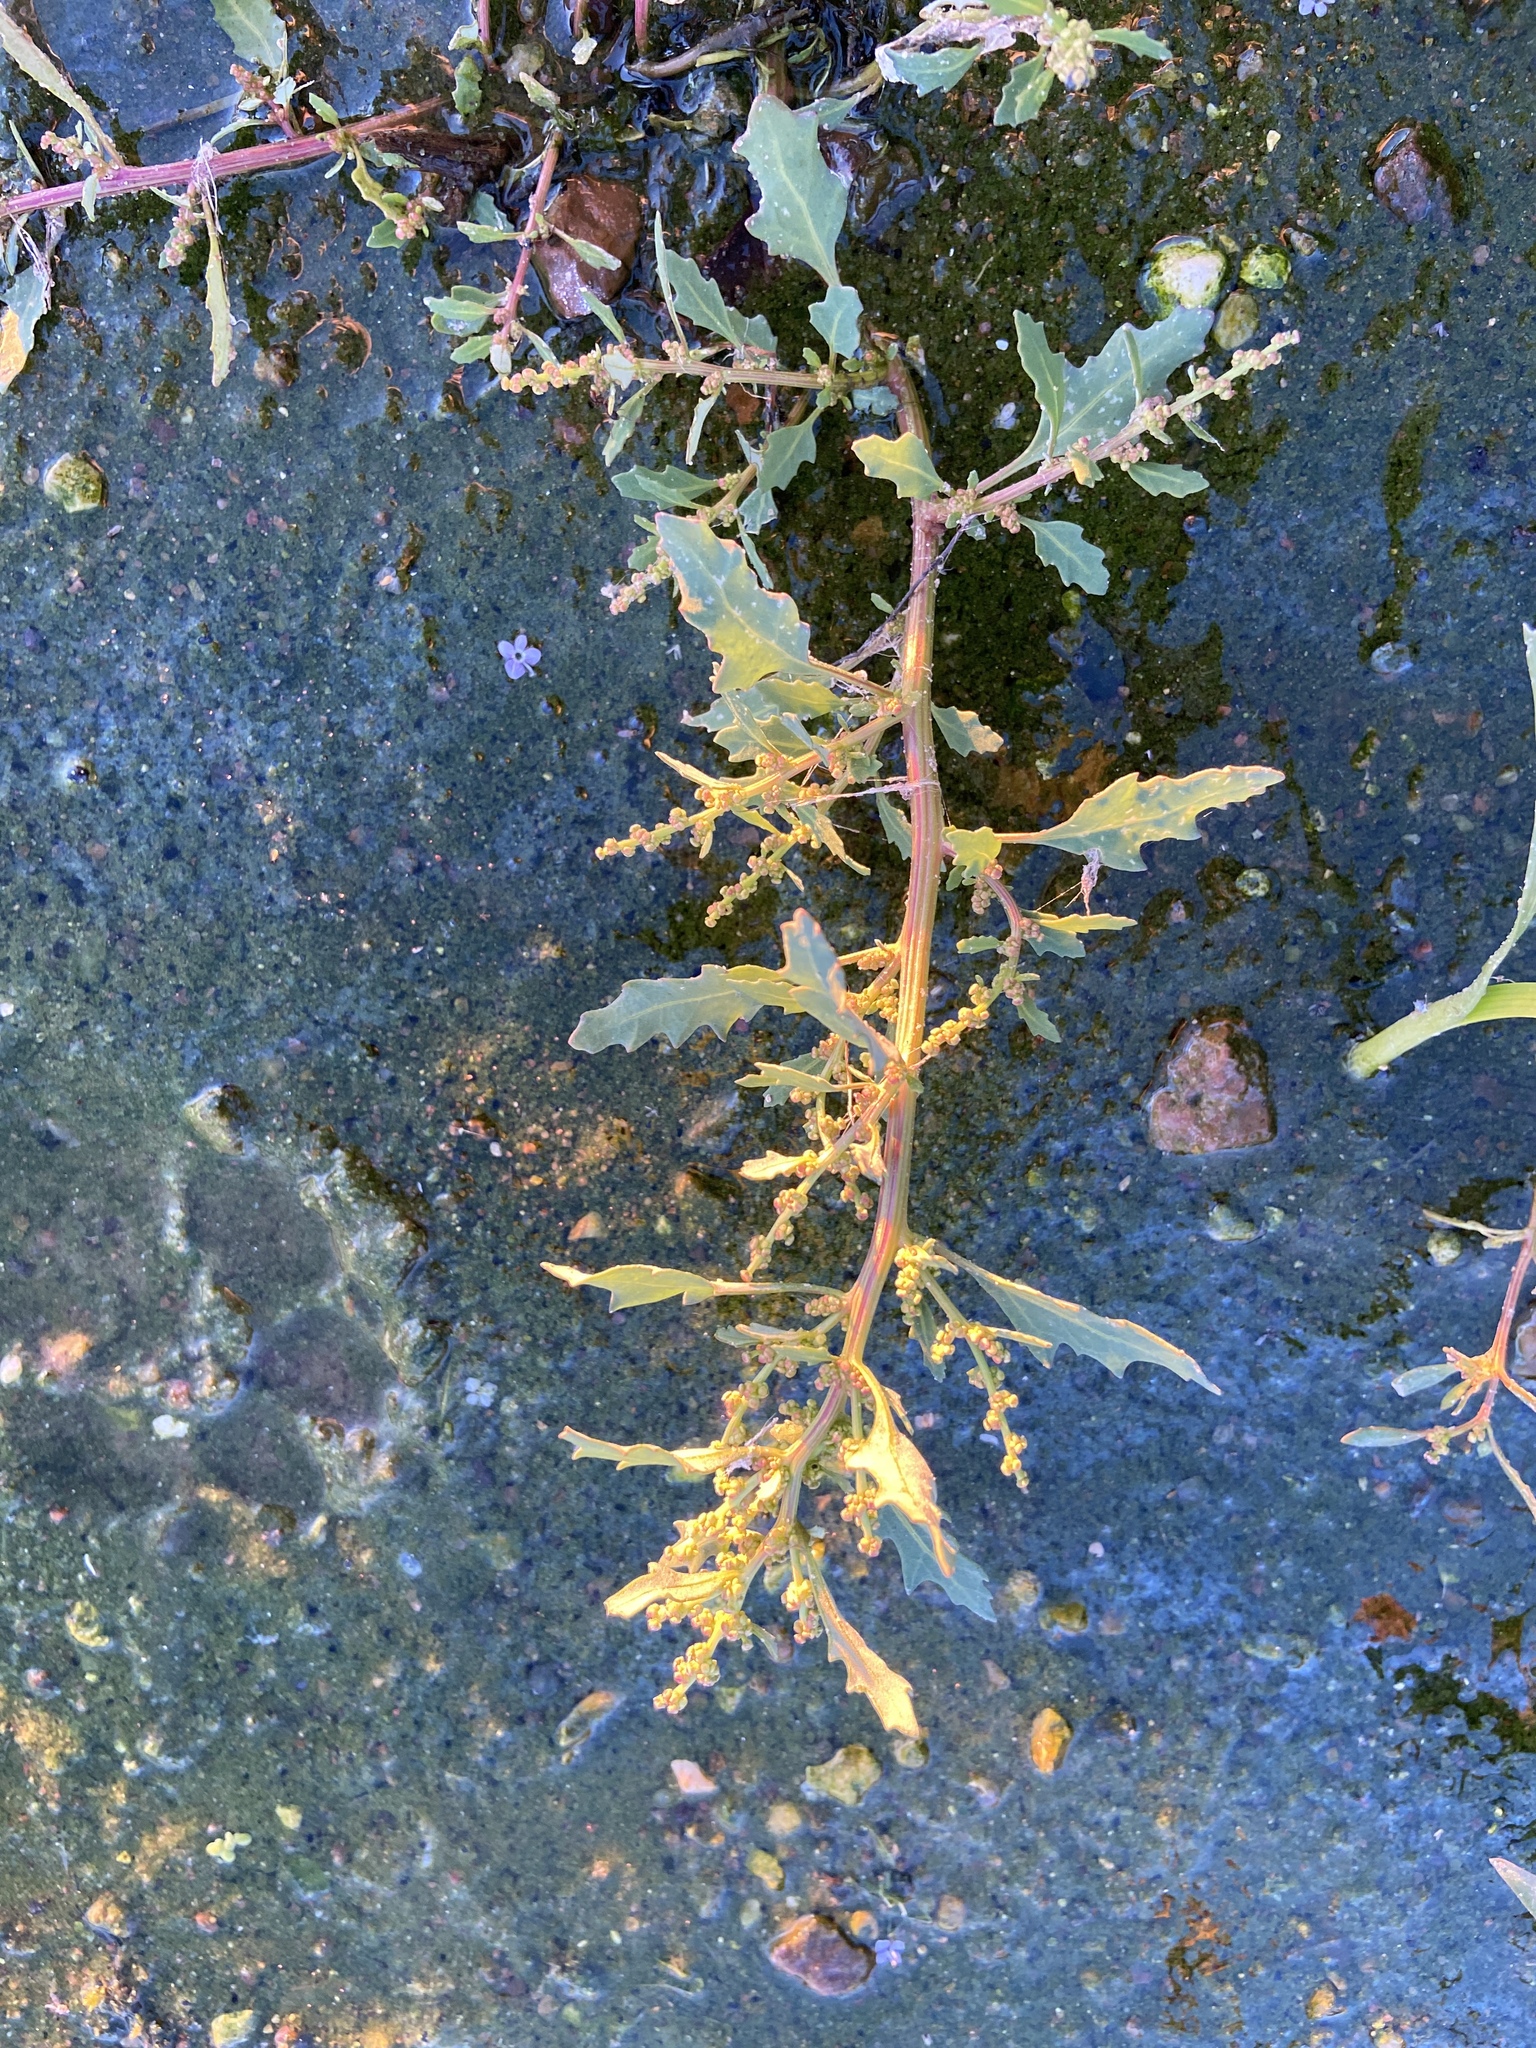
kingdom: Plantae
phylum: Tracheophyta
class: Magnoliopsida
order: Caryophyllales
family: Amaranthaceae
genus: Oxybasis
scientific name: Oxybasis glauca
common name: Glaucous goosefoot
